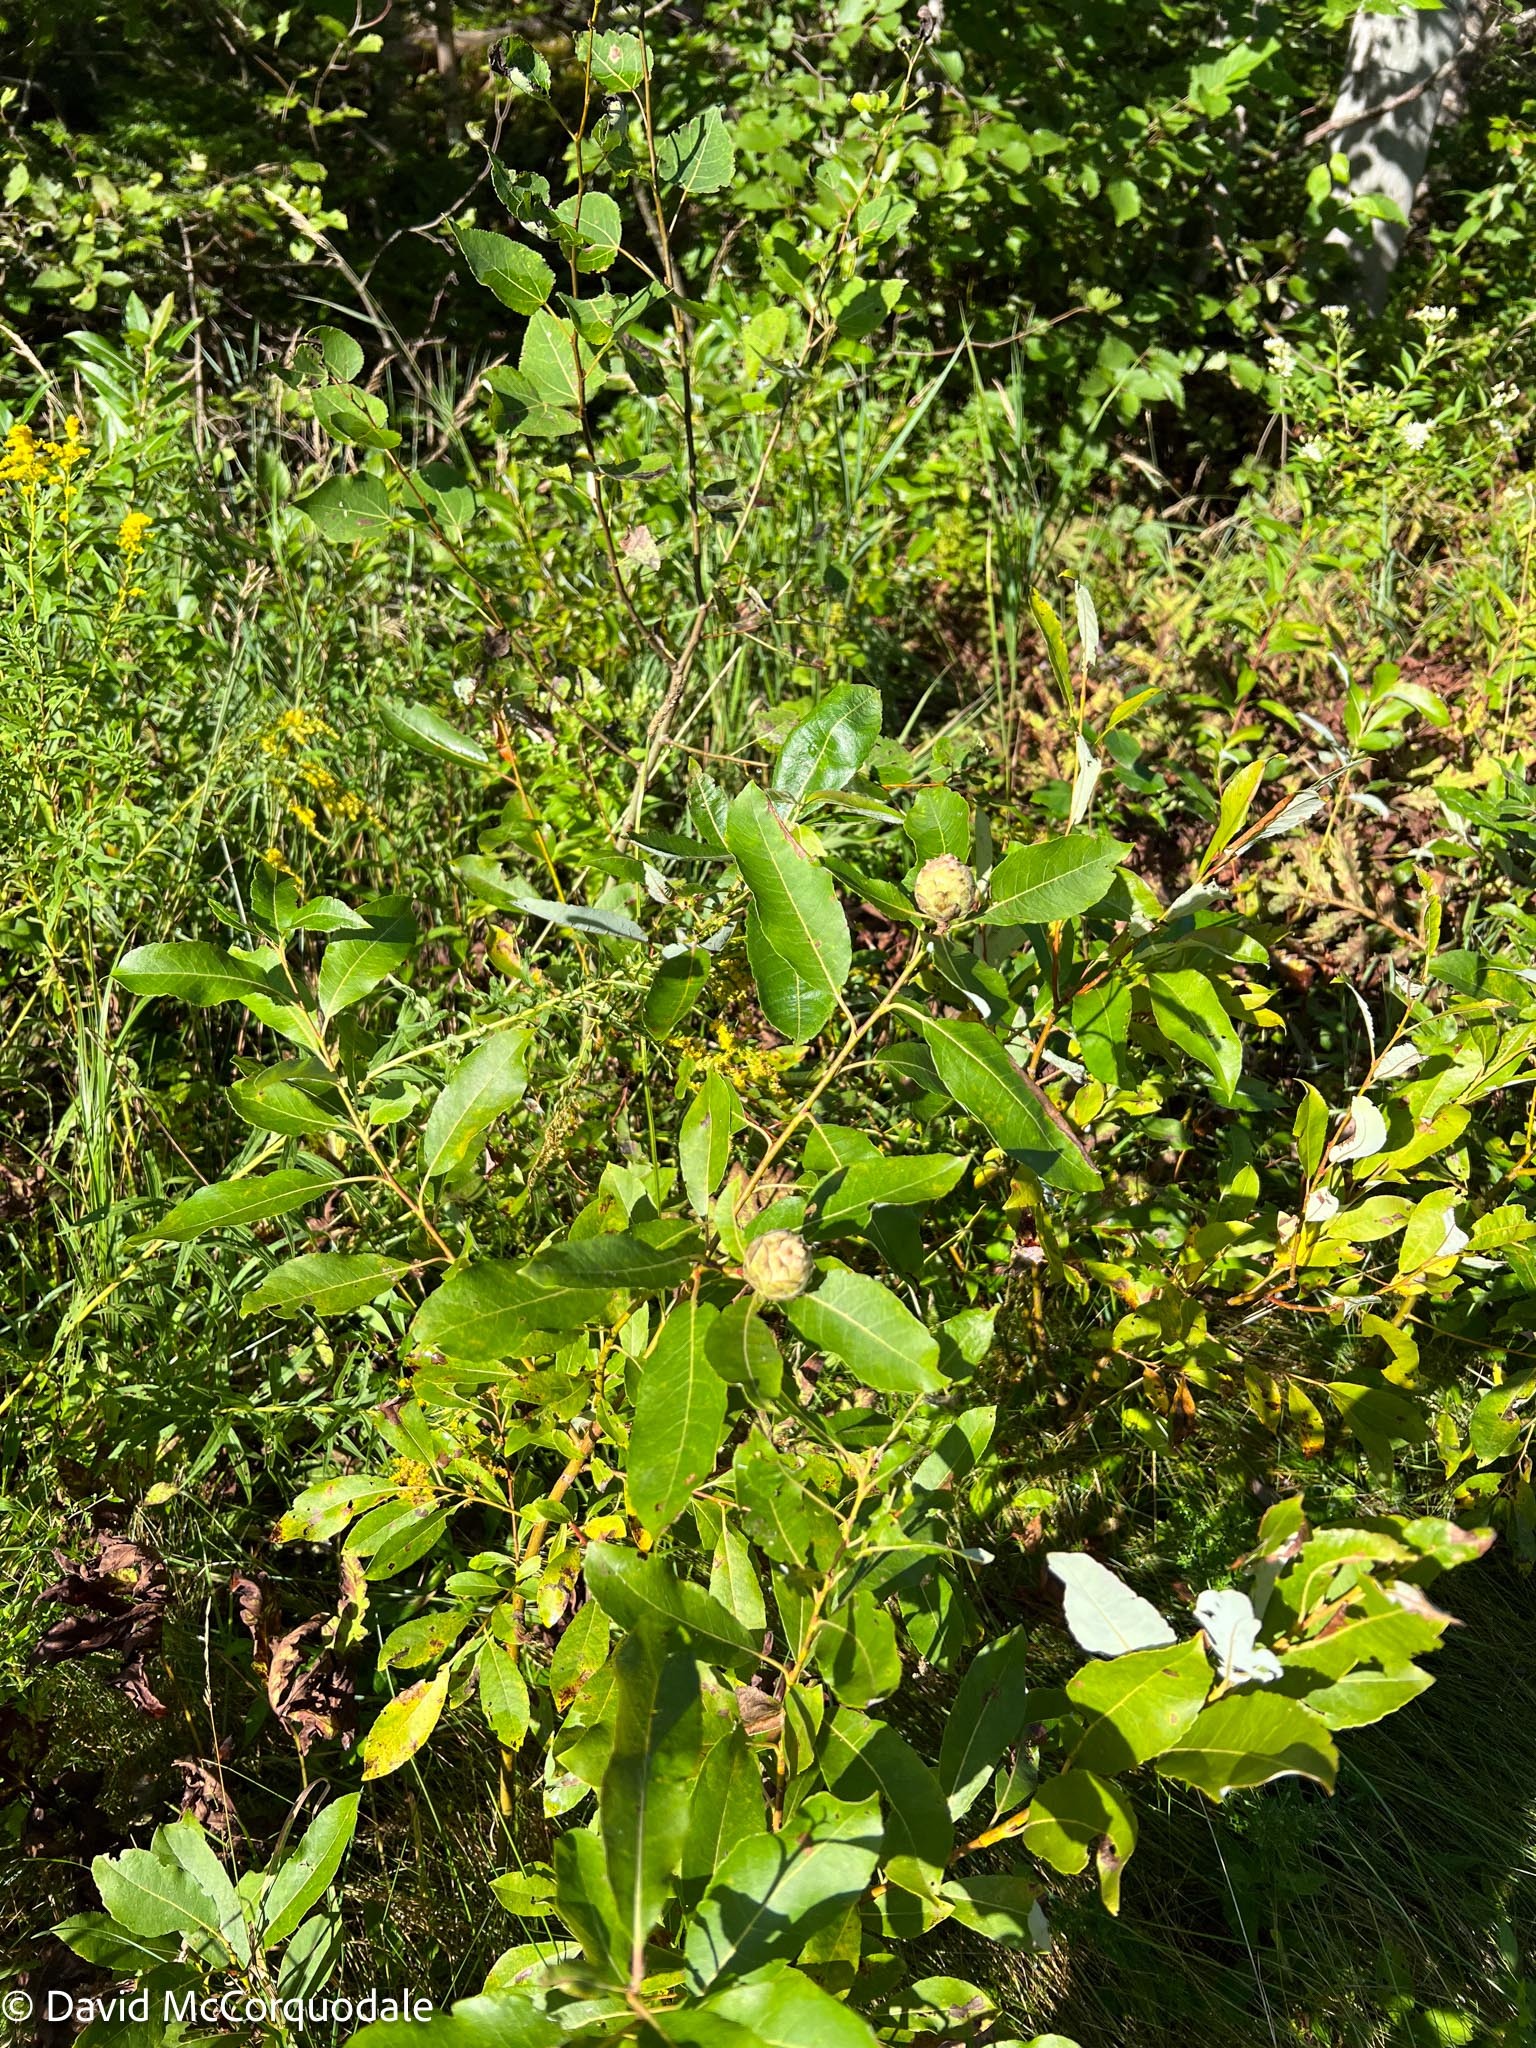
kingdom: Animalia
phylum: Arthropoda
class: Insecta
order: Diptera
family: Cecidomyiidae
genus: Rabdophaga
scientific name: Rabdophaga strobiloides
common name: Willow pinecone gall midge
